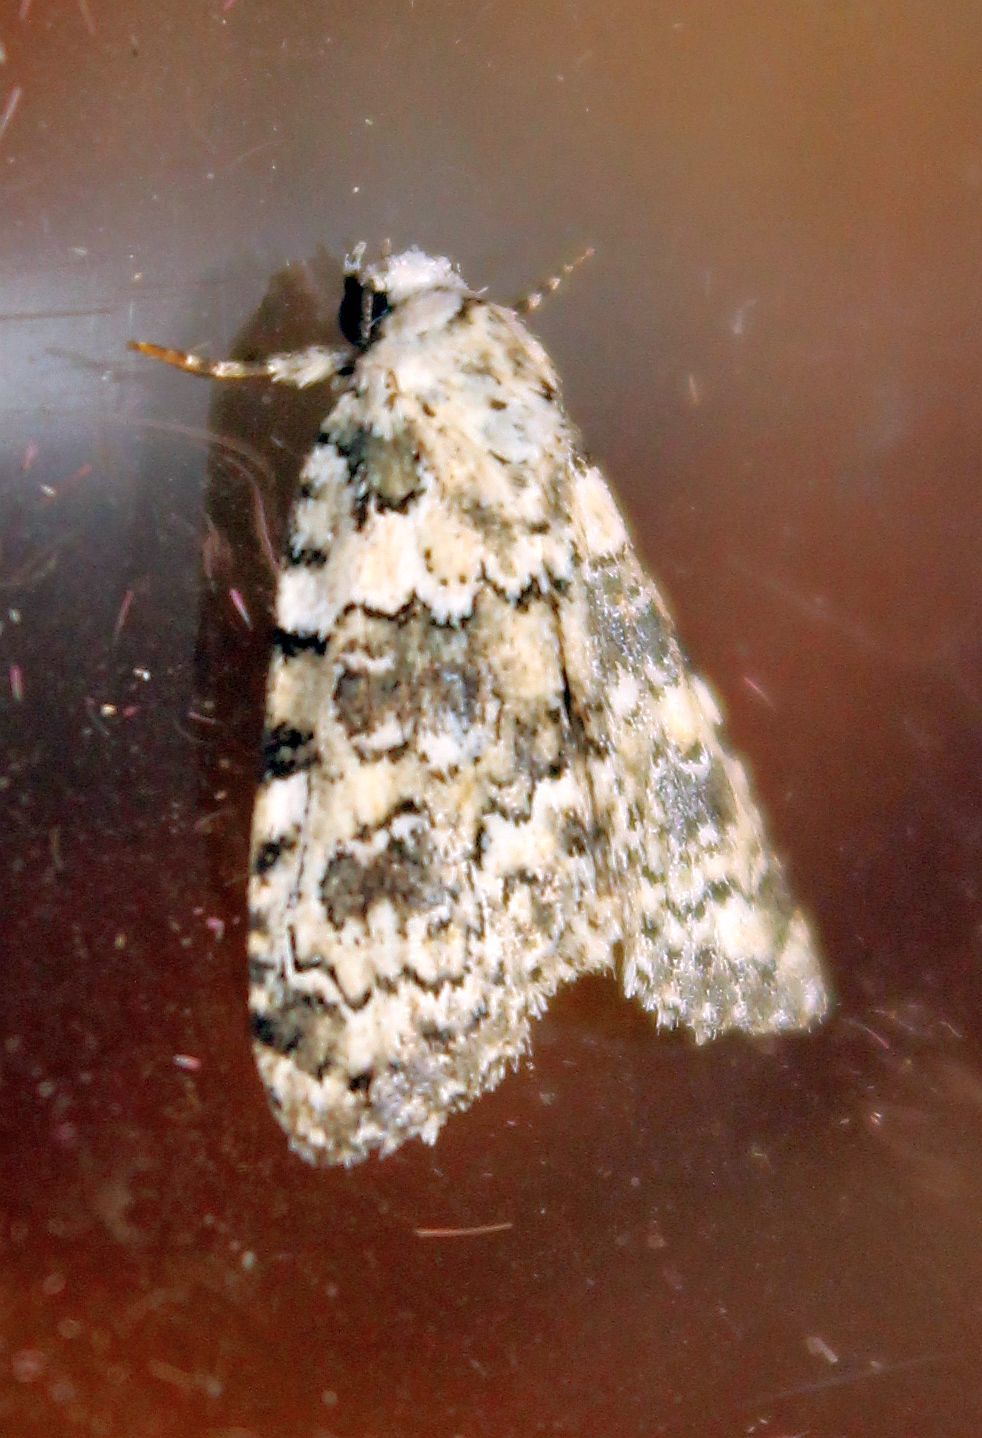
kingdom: Animalia
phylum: Arthropoda
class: Insecta
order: Lepidoptera
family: Noctuidae
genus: Bryophila
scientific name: Bryophila domestica
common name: Marbled beauty
